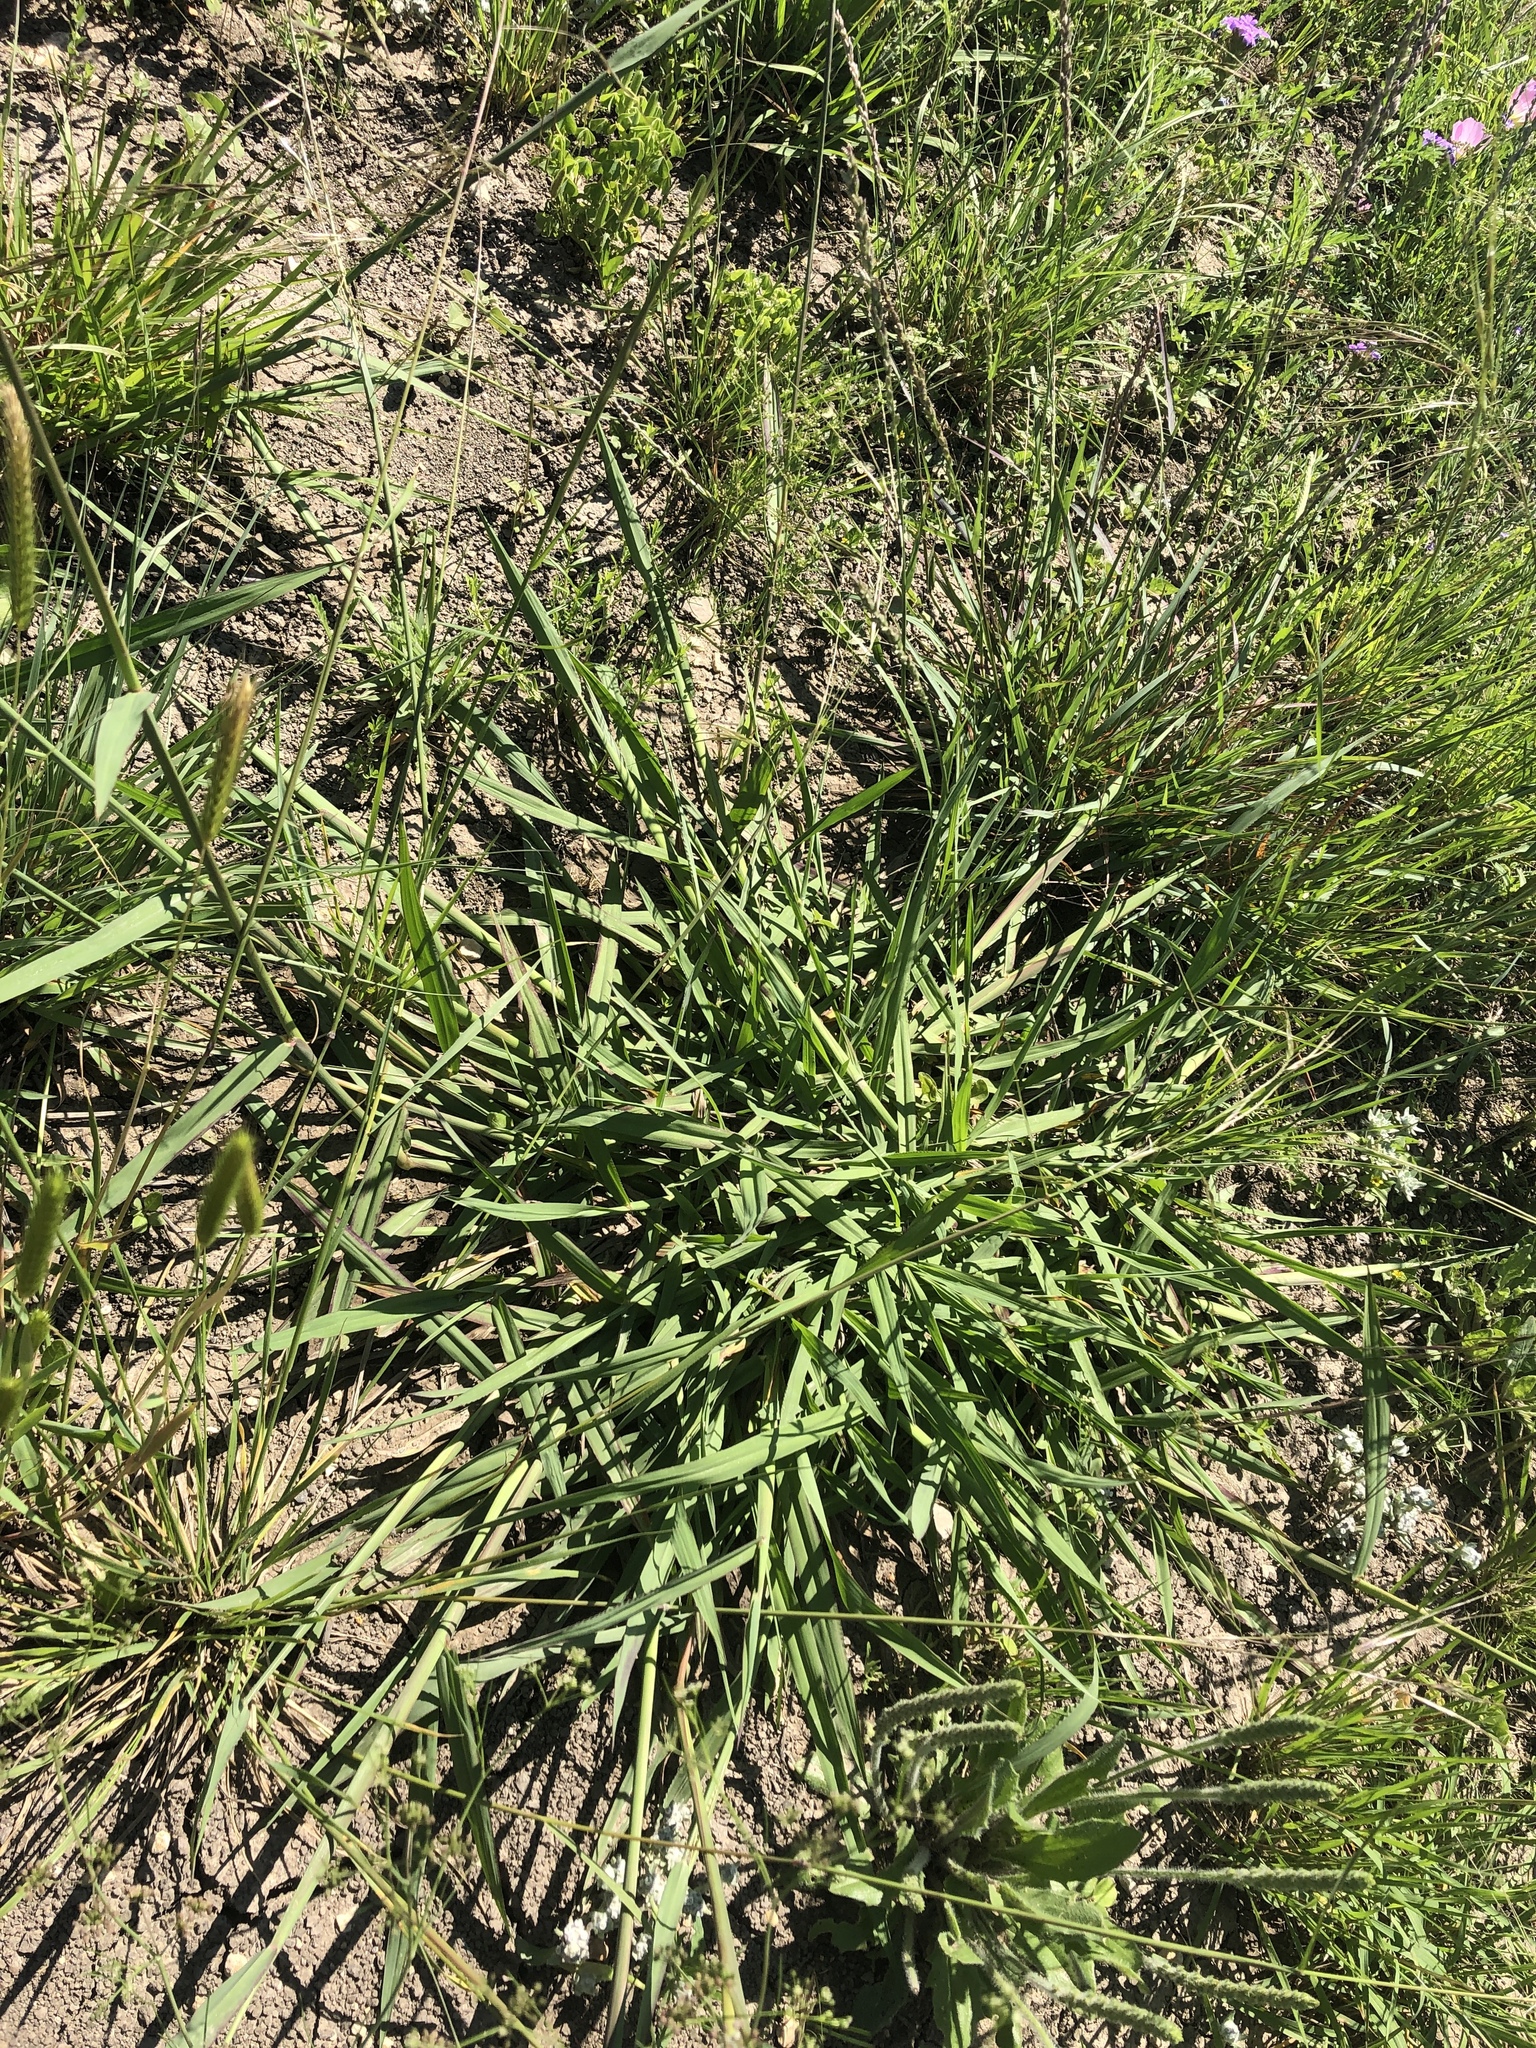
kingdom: Plantae
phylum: Tracheophyta
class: Liliopsida
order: Poales
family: Poaceae
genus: Paspalum
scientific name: Paspalum dilatatum
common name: Dallisgrass
